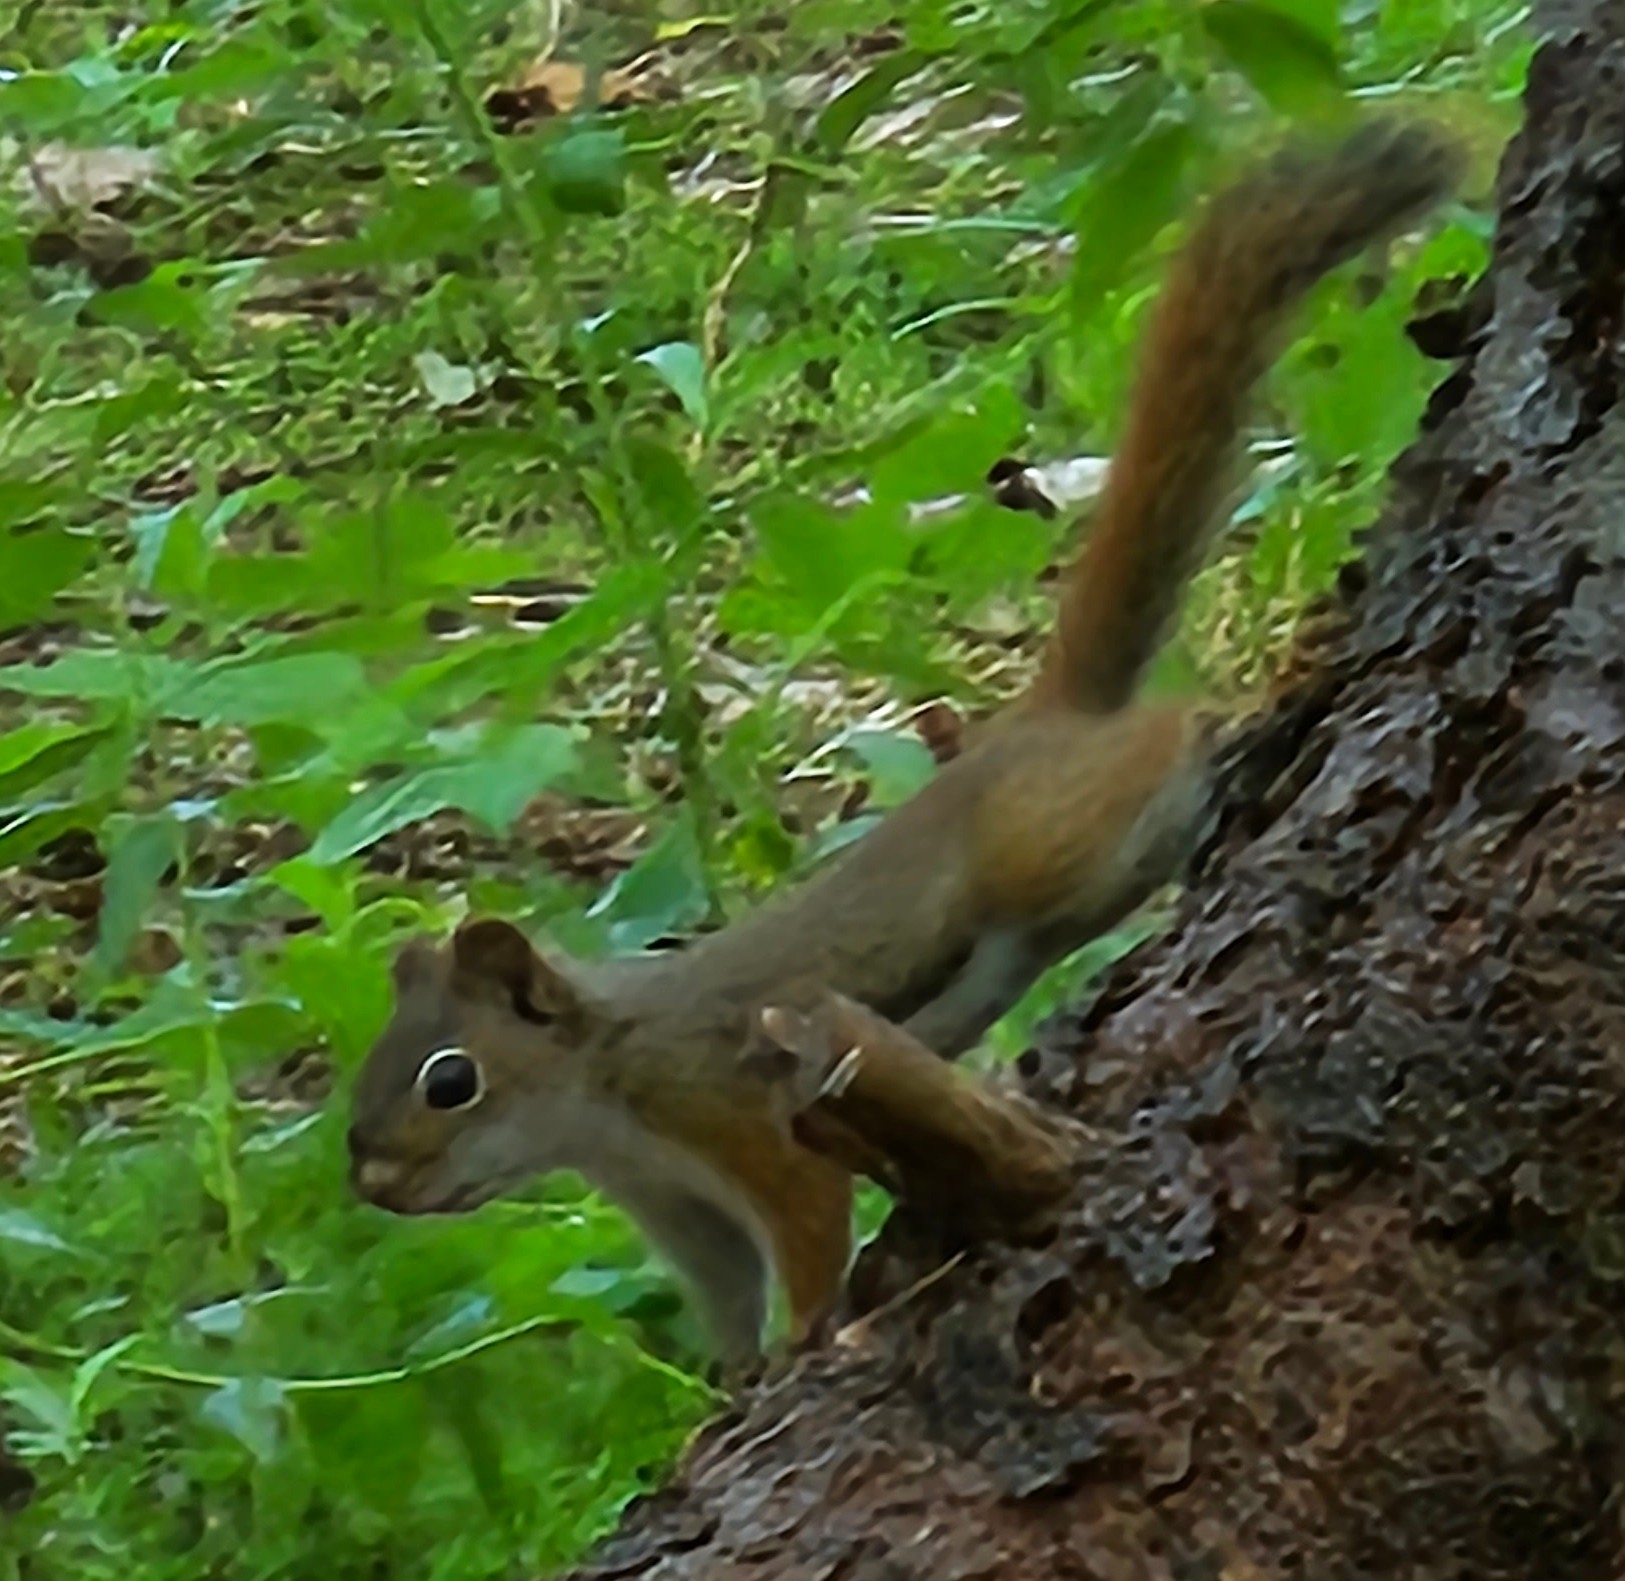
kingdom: Animalia
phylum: Chordata
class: Mammalia
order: Rodentia
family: Sciuridae
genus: Tamiasciurus
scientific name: Tamiasciurus hudsonicus
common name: Red squirrel
